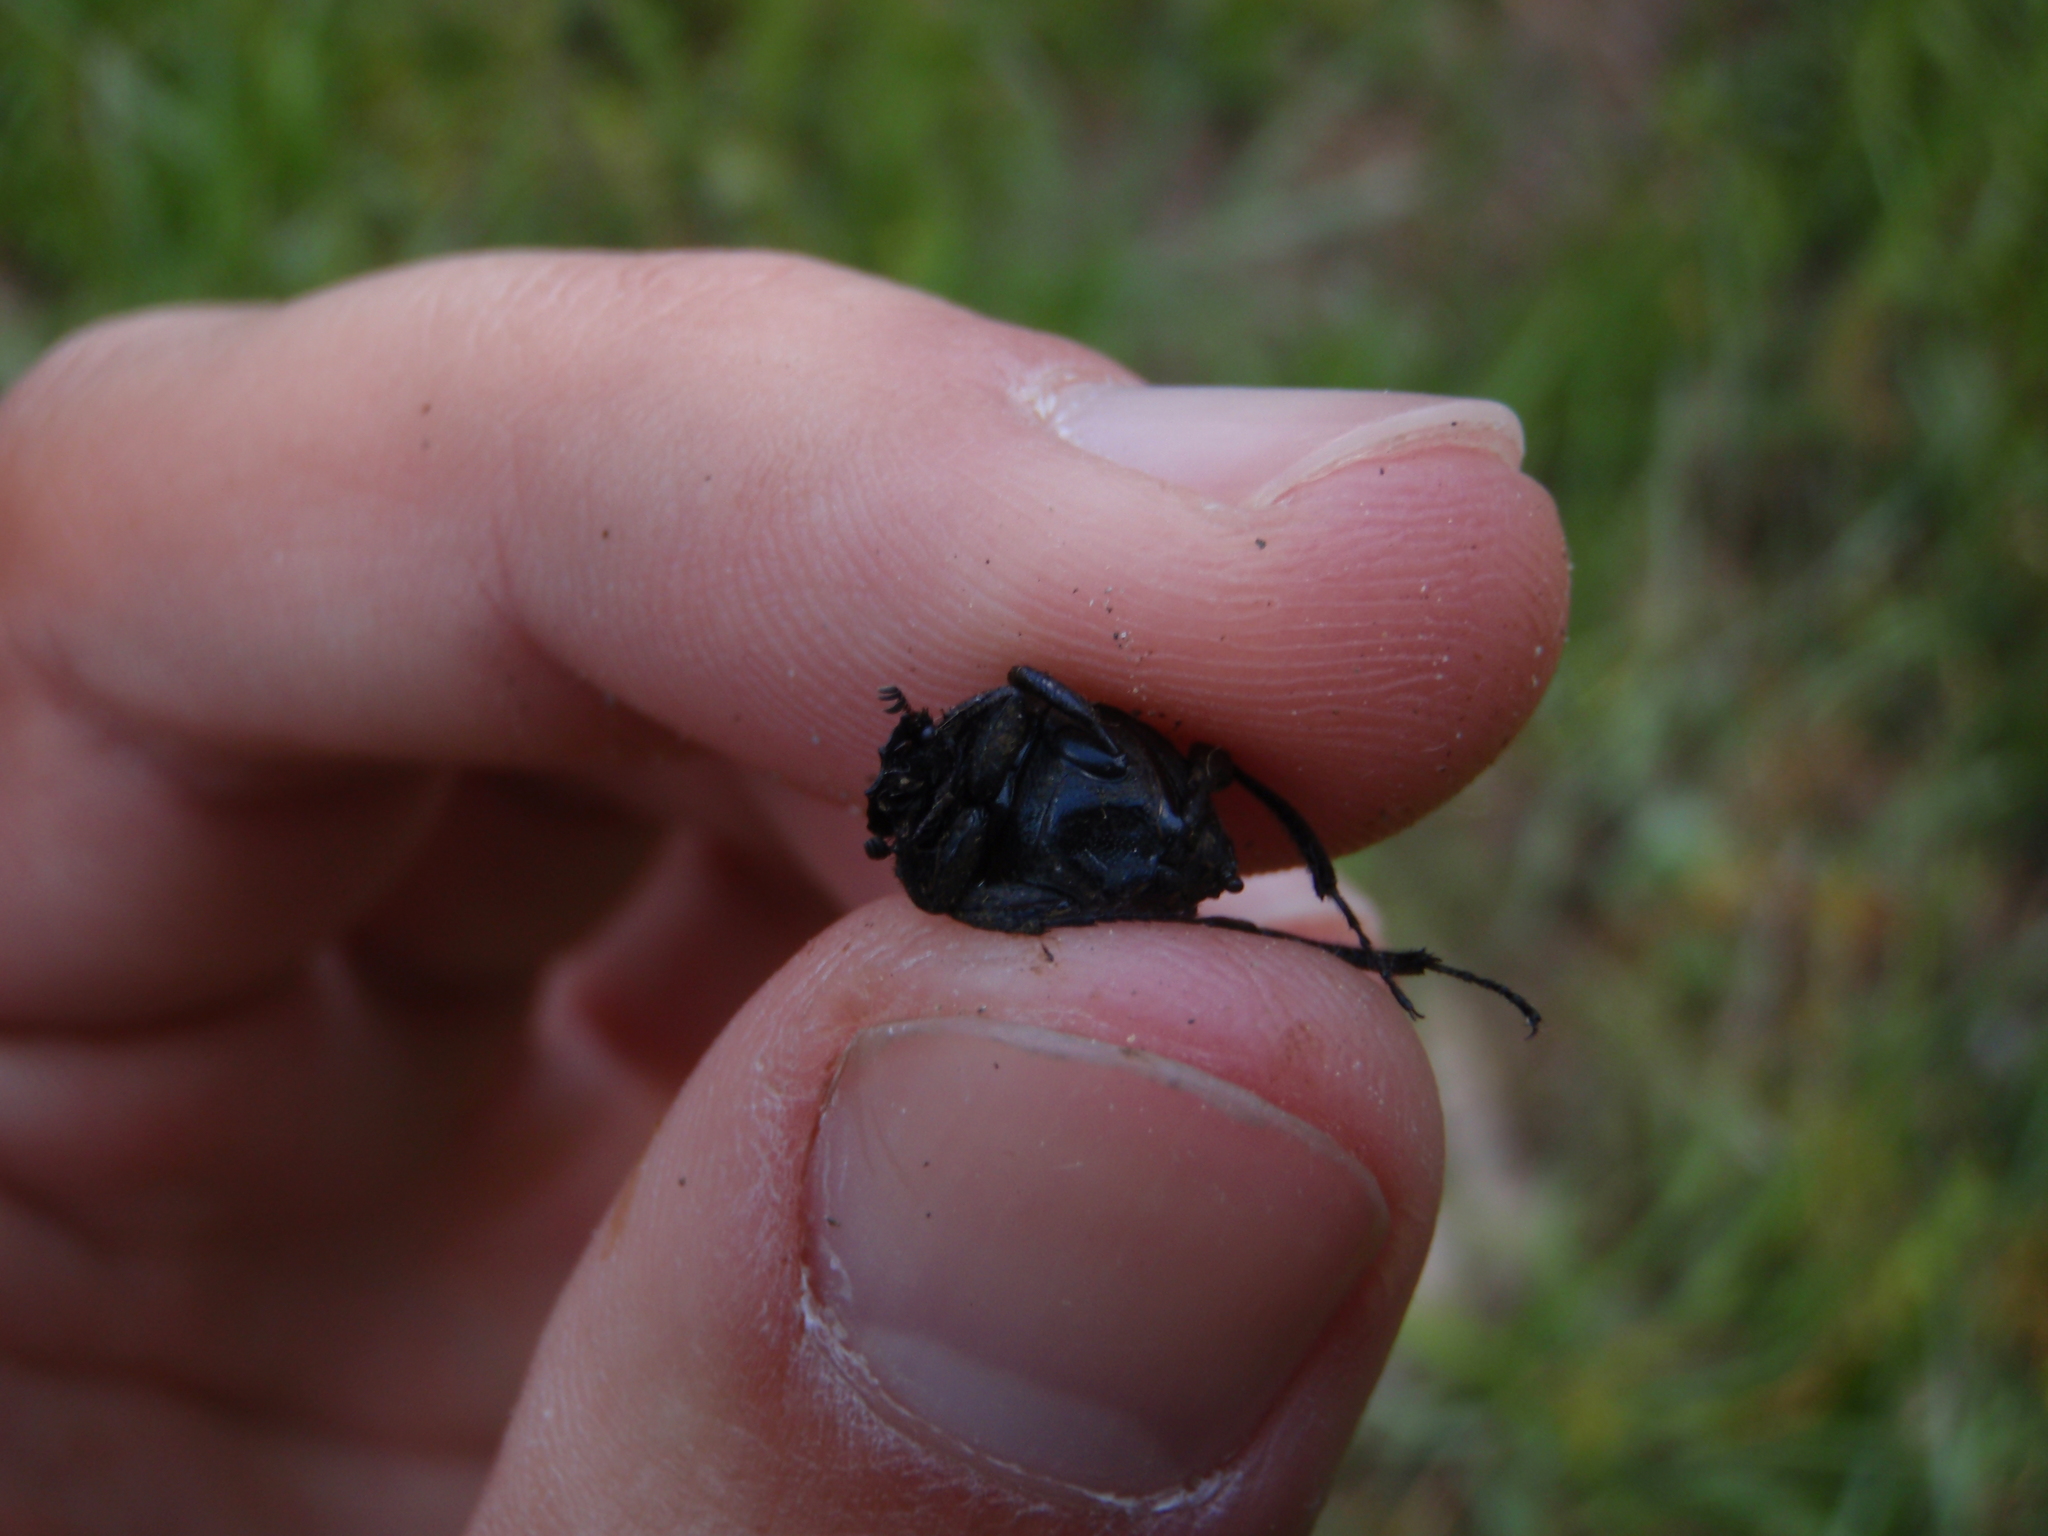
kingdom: Animalia
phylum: Arthropoda
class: Insecta
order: Coleoptera
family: Scarabaeidae
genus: Sisyphus
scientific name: Sisyphus schaefferi
